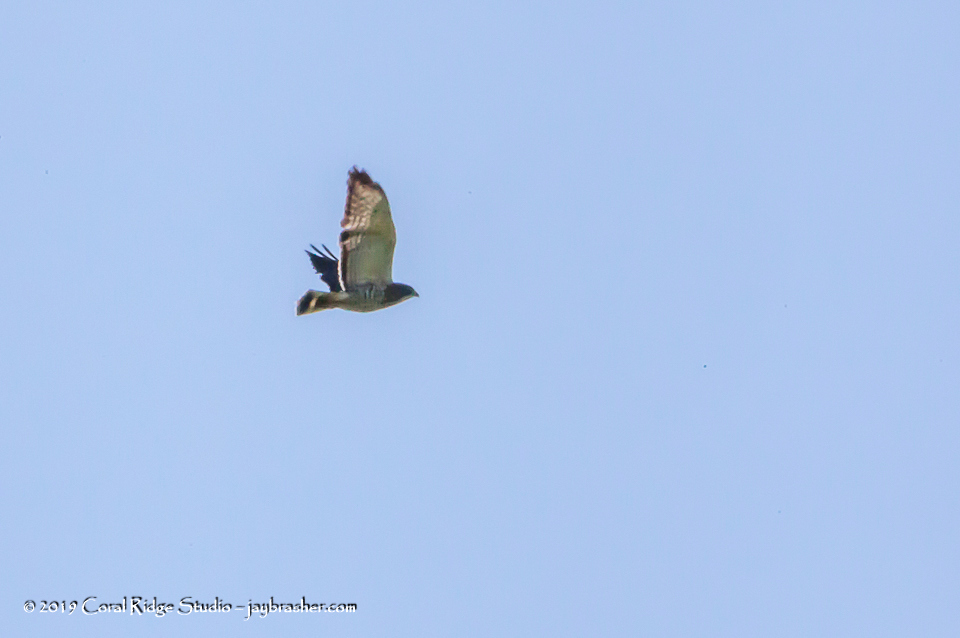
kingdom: Animalia
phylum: Chordata
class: Aves
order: Accipitriformes
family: Accipitridae
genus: Buteo
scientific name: Buteo platypterus
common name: Broad-winged hawk
